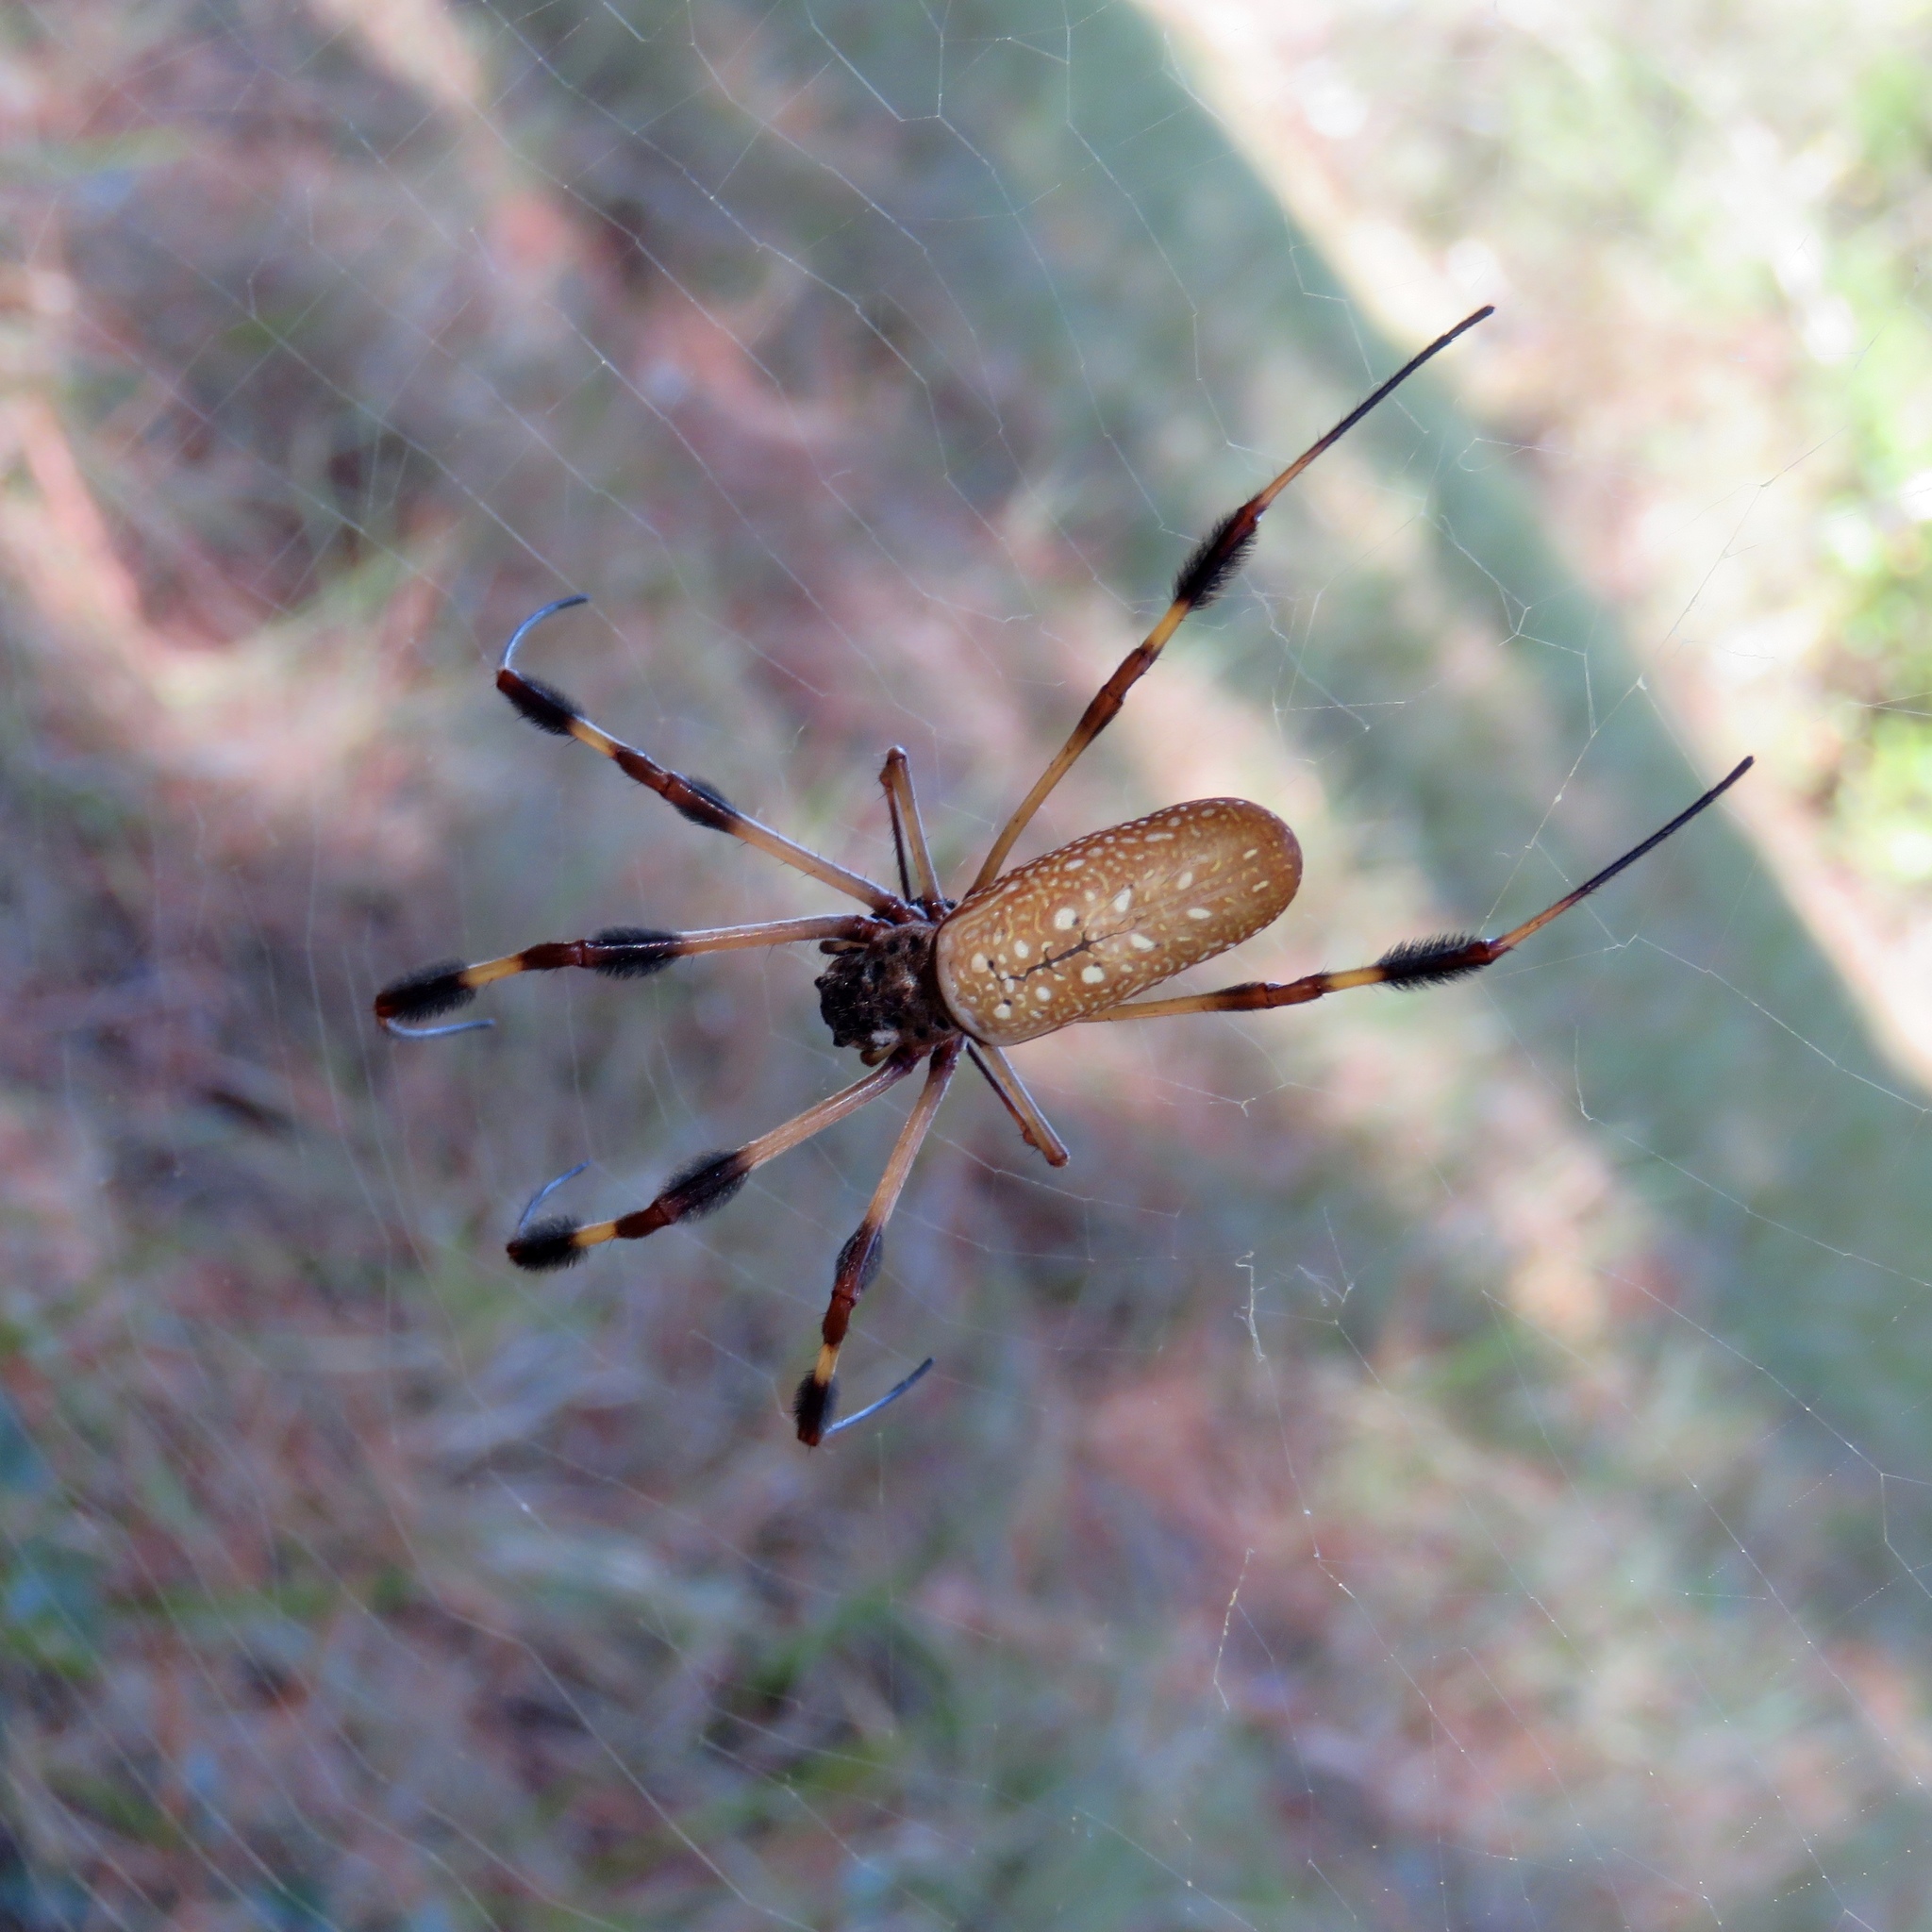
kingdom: Animalia
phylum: Arthropoda
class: Arachnida
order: Araneae
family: Araneidae
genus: Trichonephila
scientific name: Trichonephila clavipes
